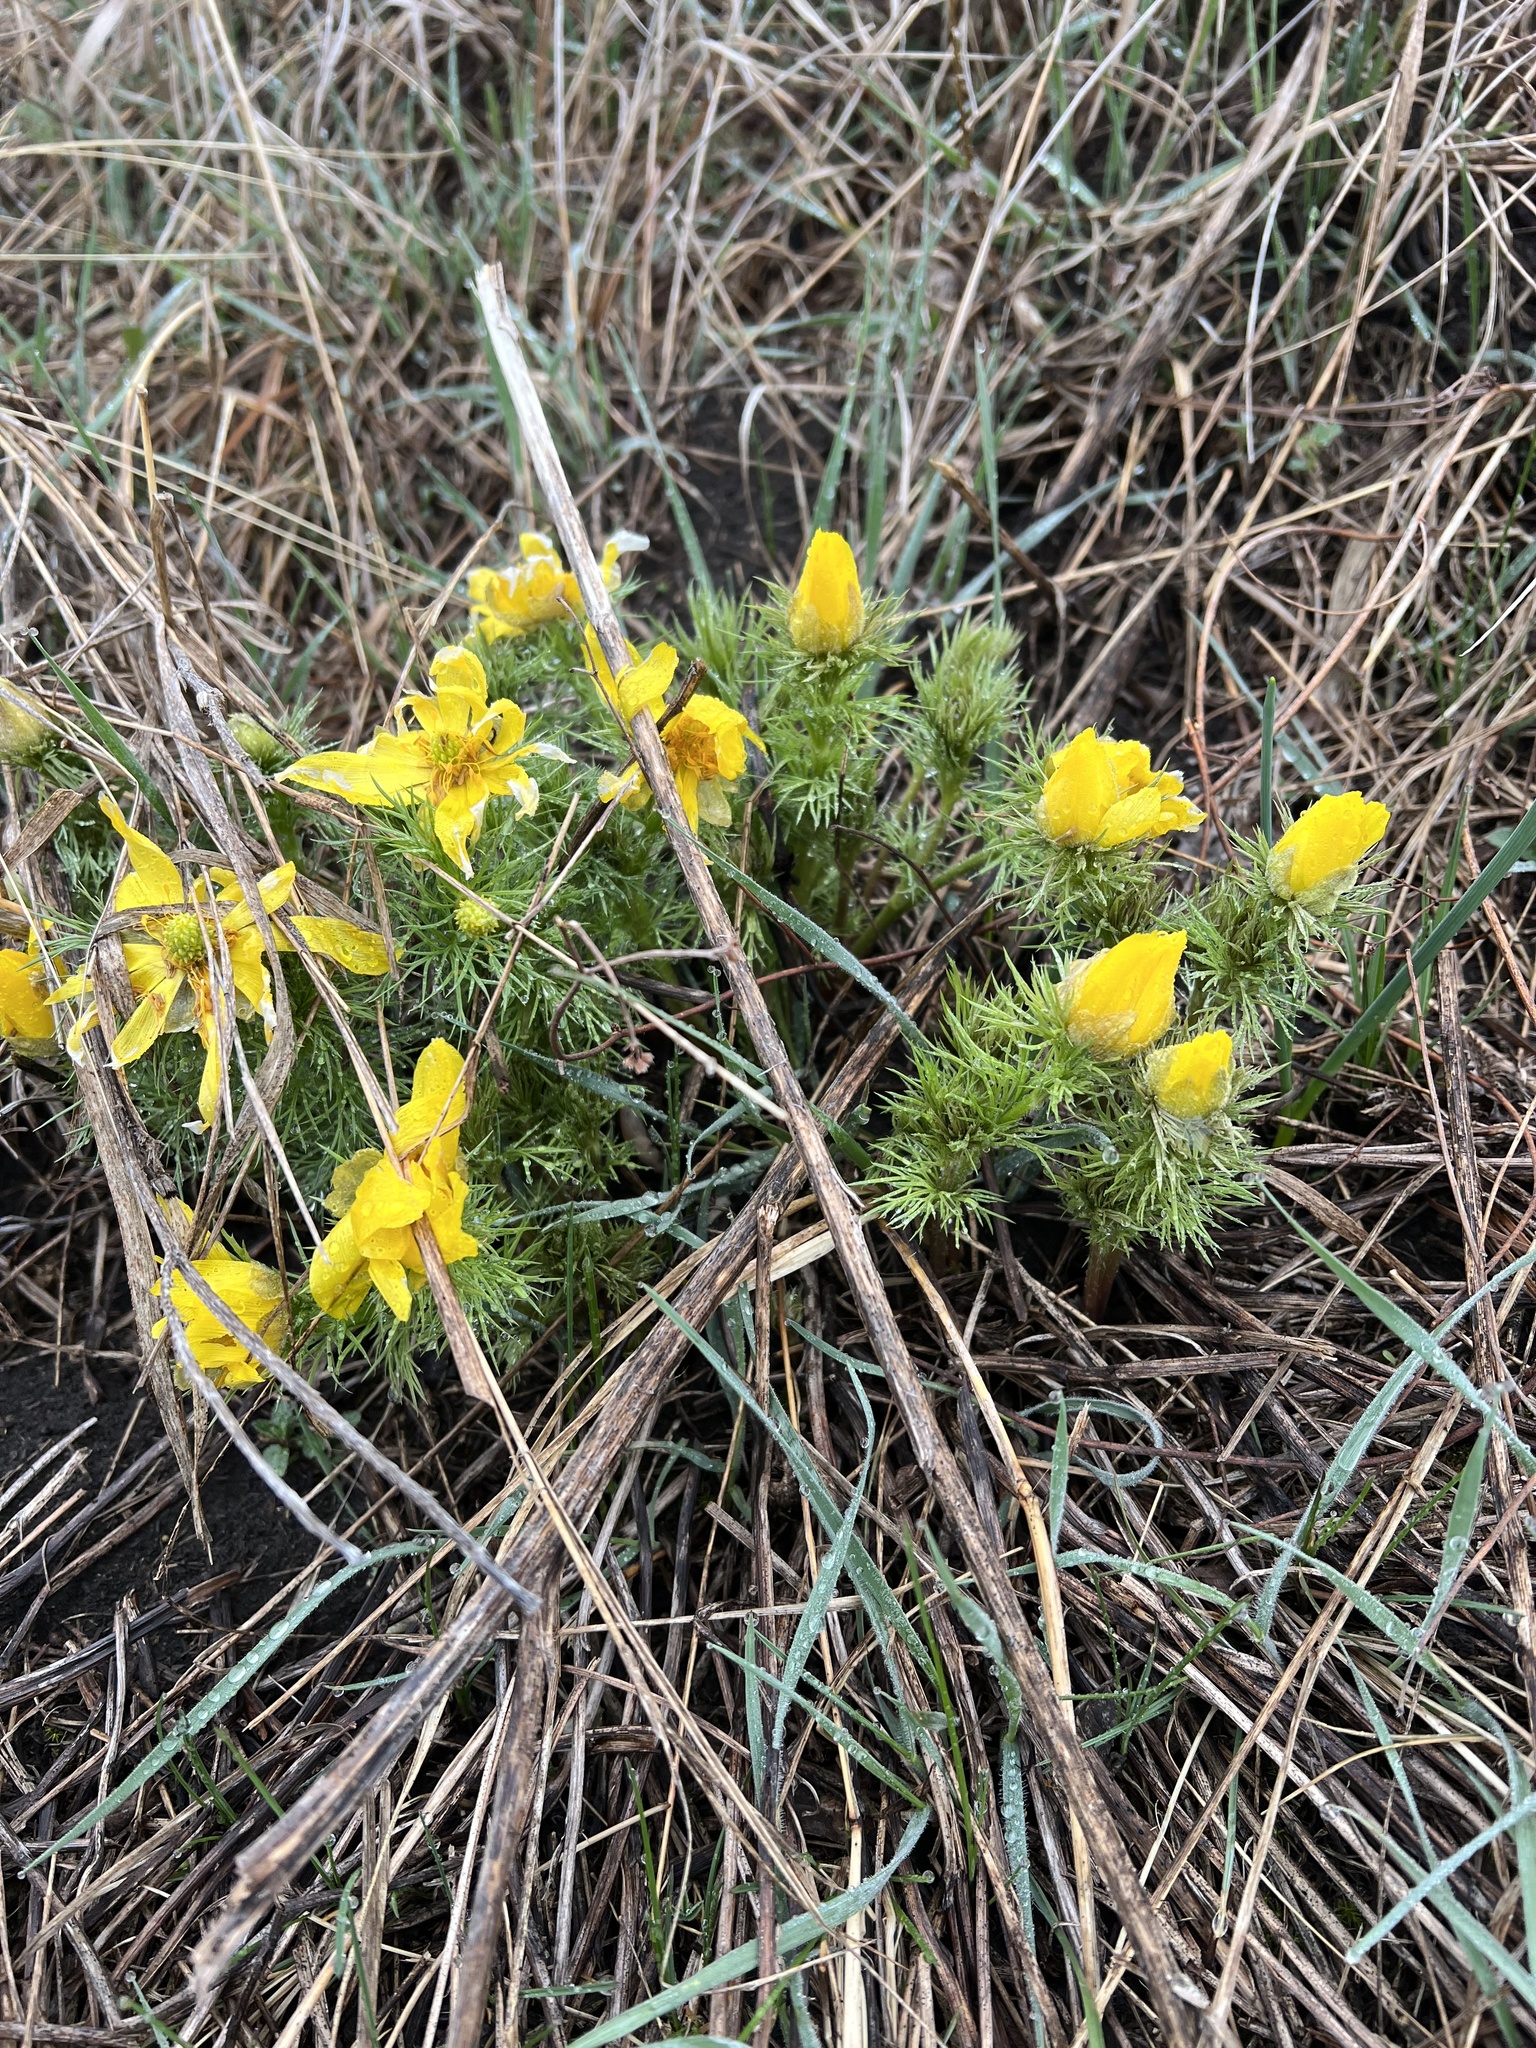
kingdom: Plantae
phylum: Tracheophyta
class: Magnoliopsida
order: Ranunculales
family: Ranunculaceae
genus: Adonis
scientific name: Adonis vernalis
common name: Yellow pheasants-eye
